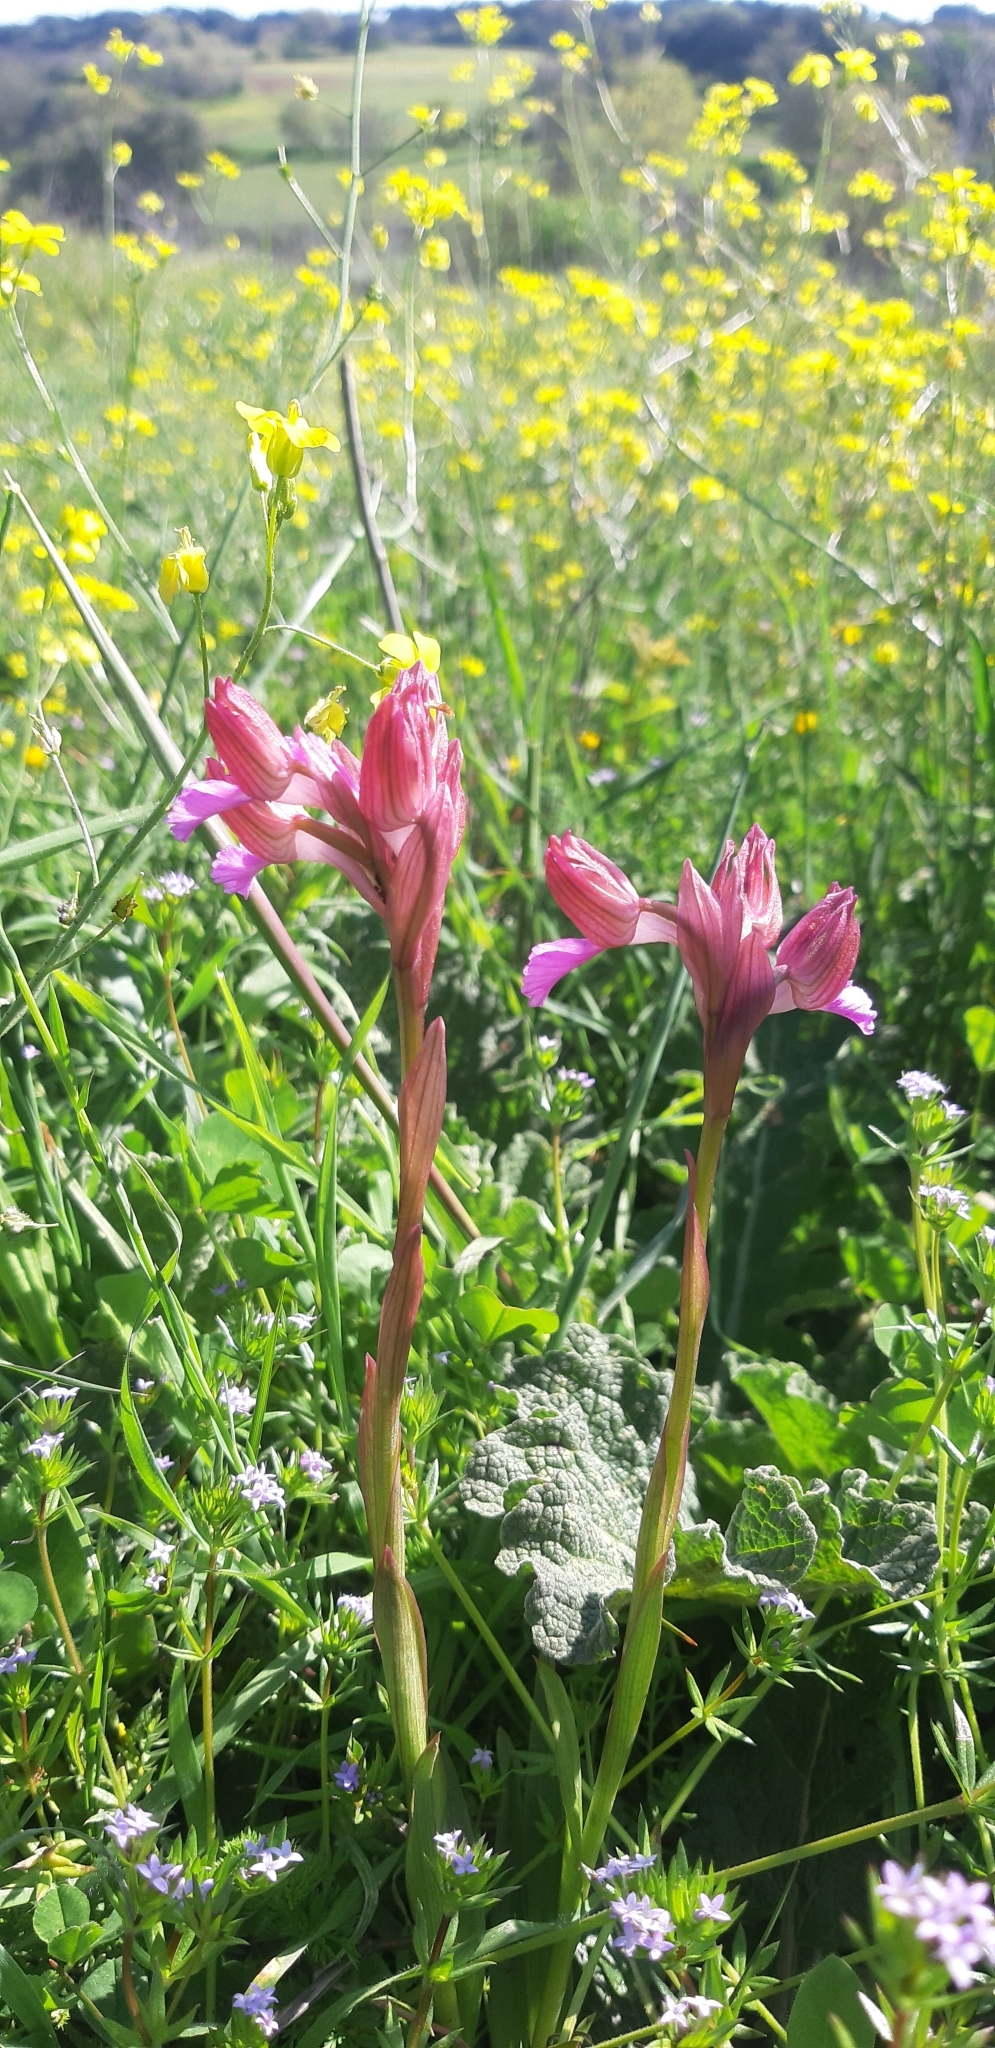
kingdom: Plantae
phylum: Tracheophyta
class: Liliopsida
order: Asparagales
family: Orchidaceae
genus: Anacamptis
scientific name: Anacamptis papilionacea
